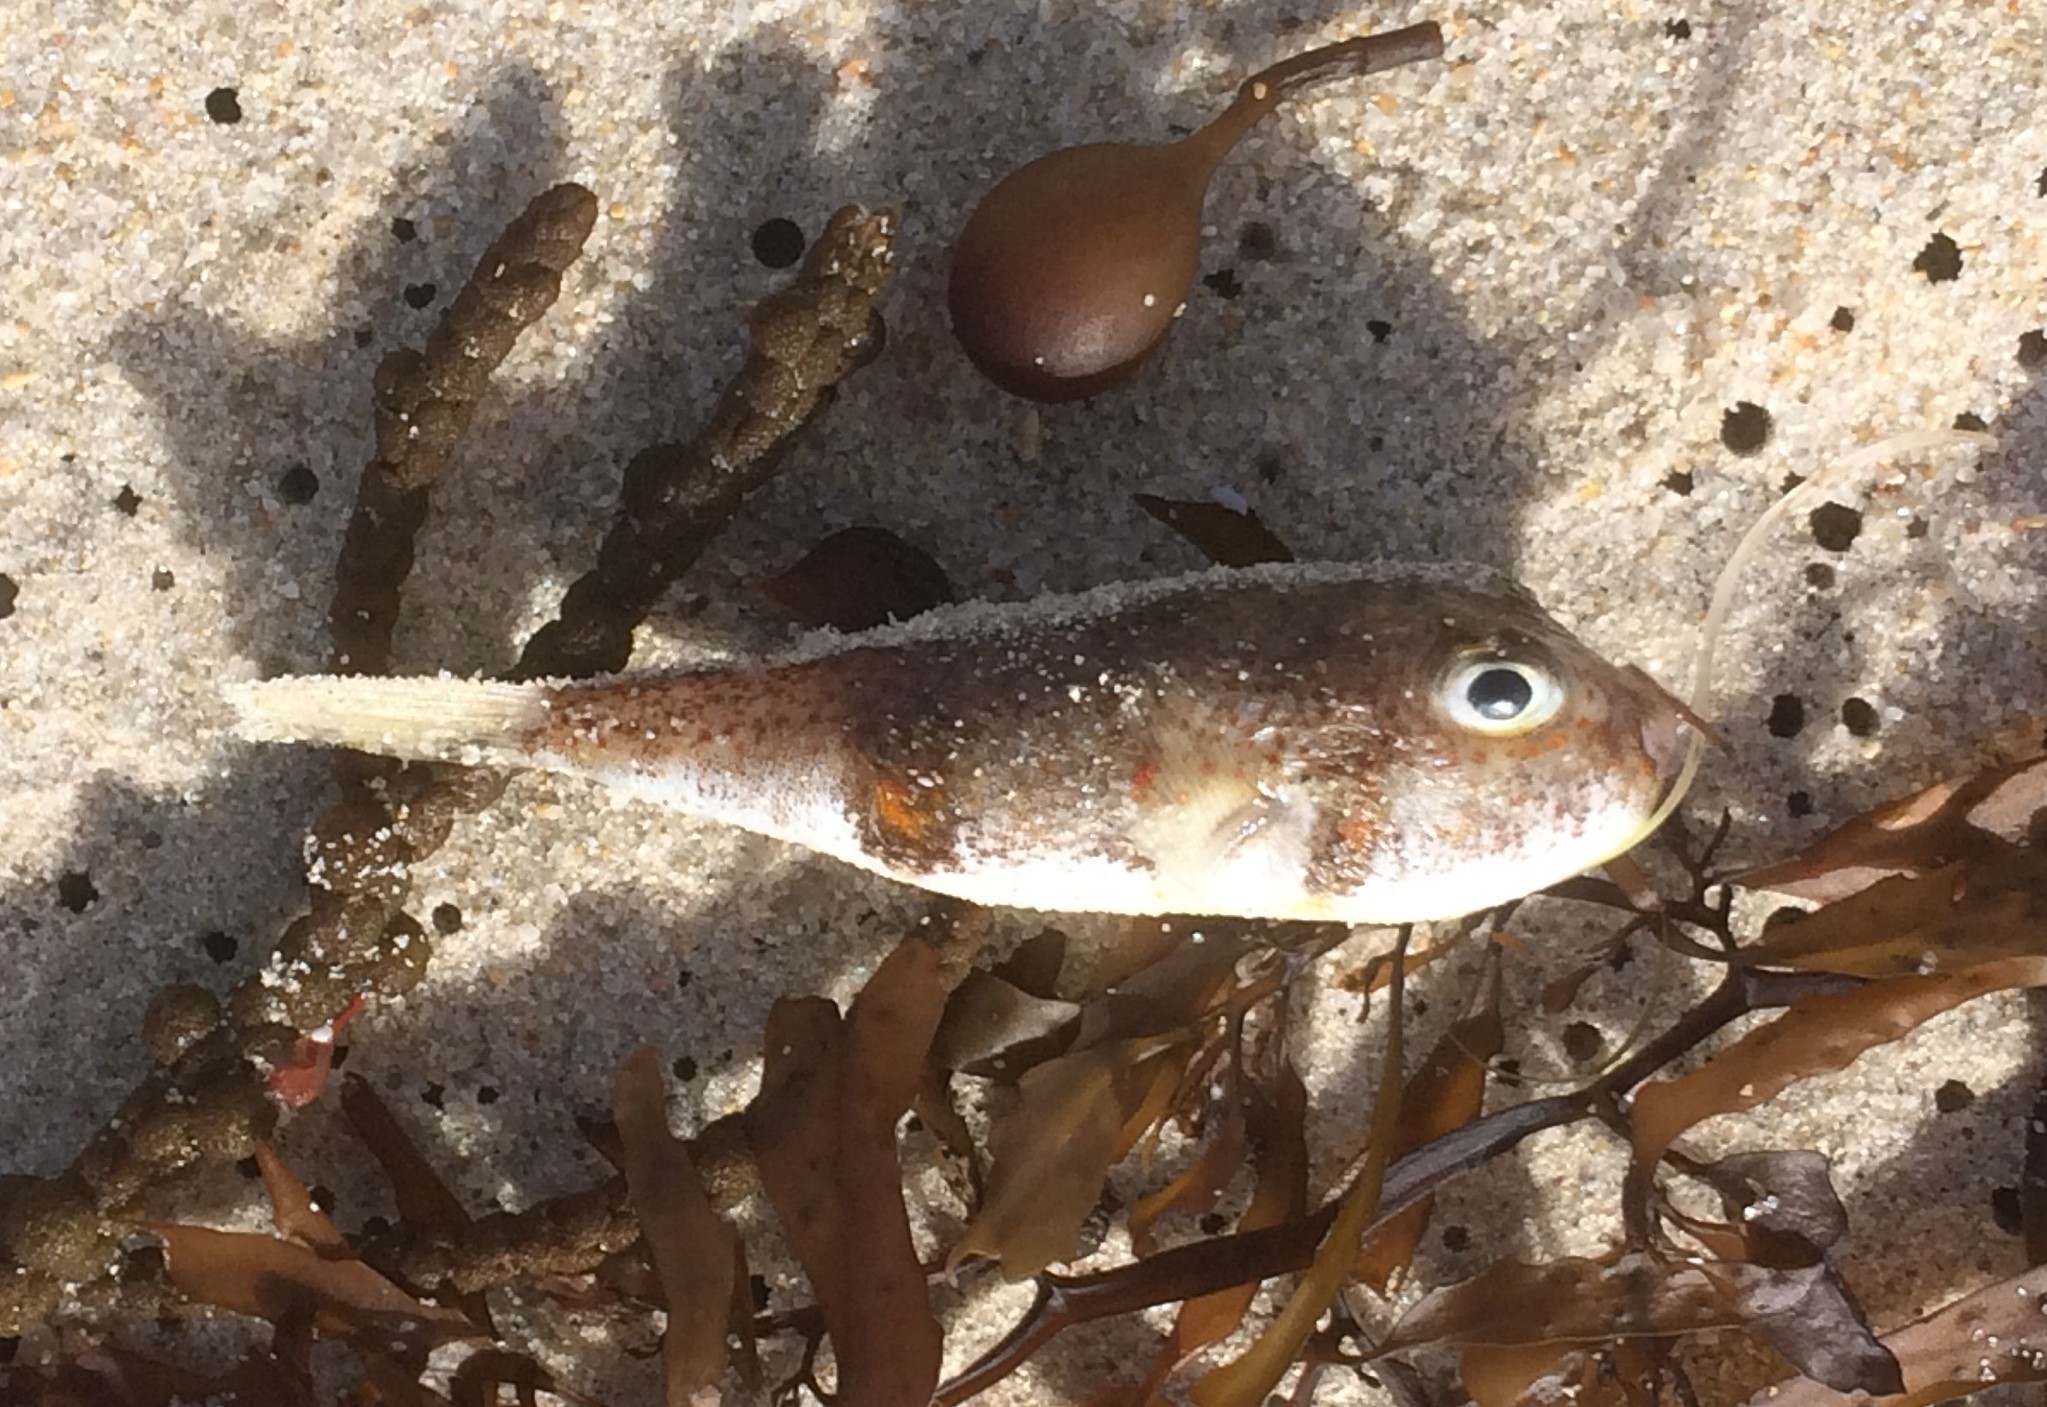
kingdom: Animalia
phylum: Chordata
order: Tetraodontiformes
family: Tetraodontidae
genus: Polyspina
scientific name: Polyspina piosae
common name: Orange-barred pufferfish
